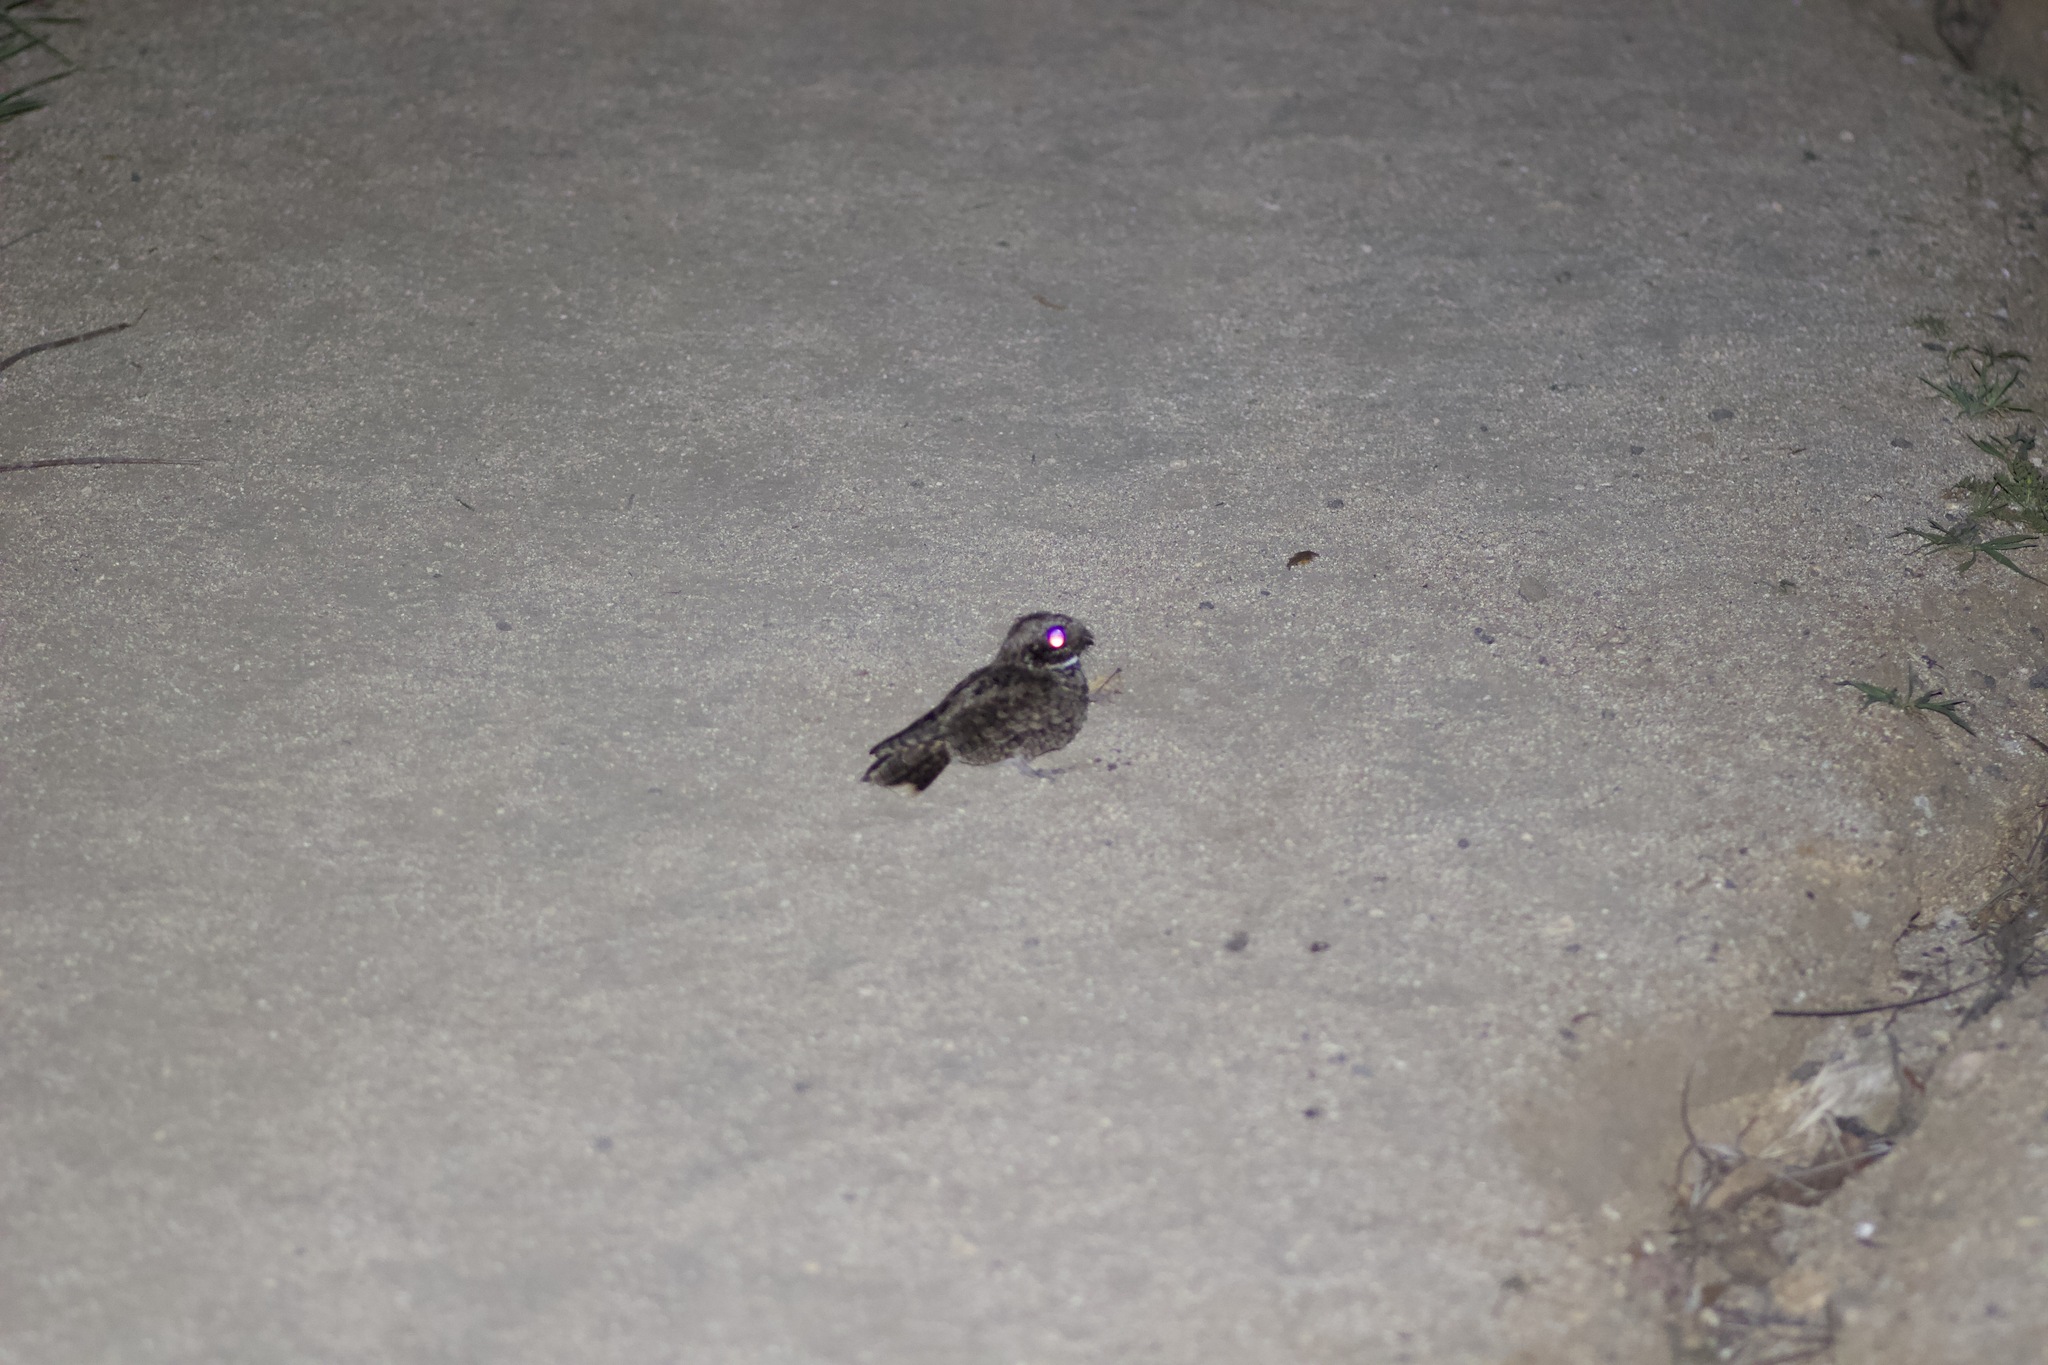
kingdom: Animalia
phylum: Chordata
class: Aves
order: Caprimulgiformes
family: Caprimulgidae
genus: Phalaenoptilus
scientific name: Phalaenoptilus nuttallii
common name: Common poorwill
